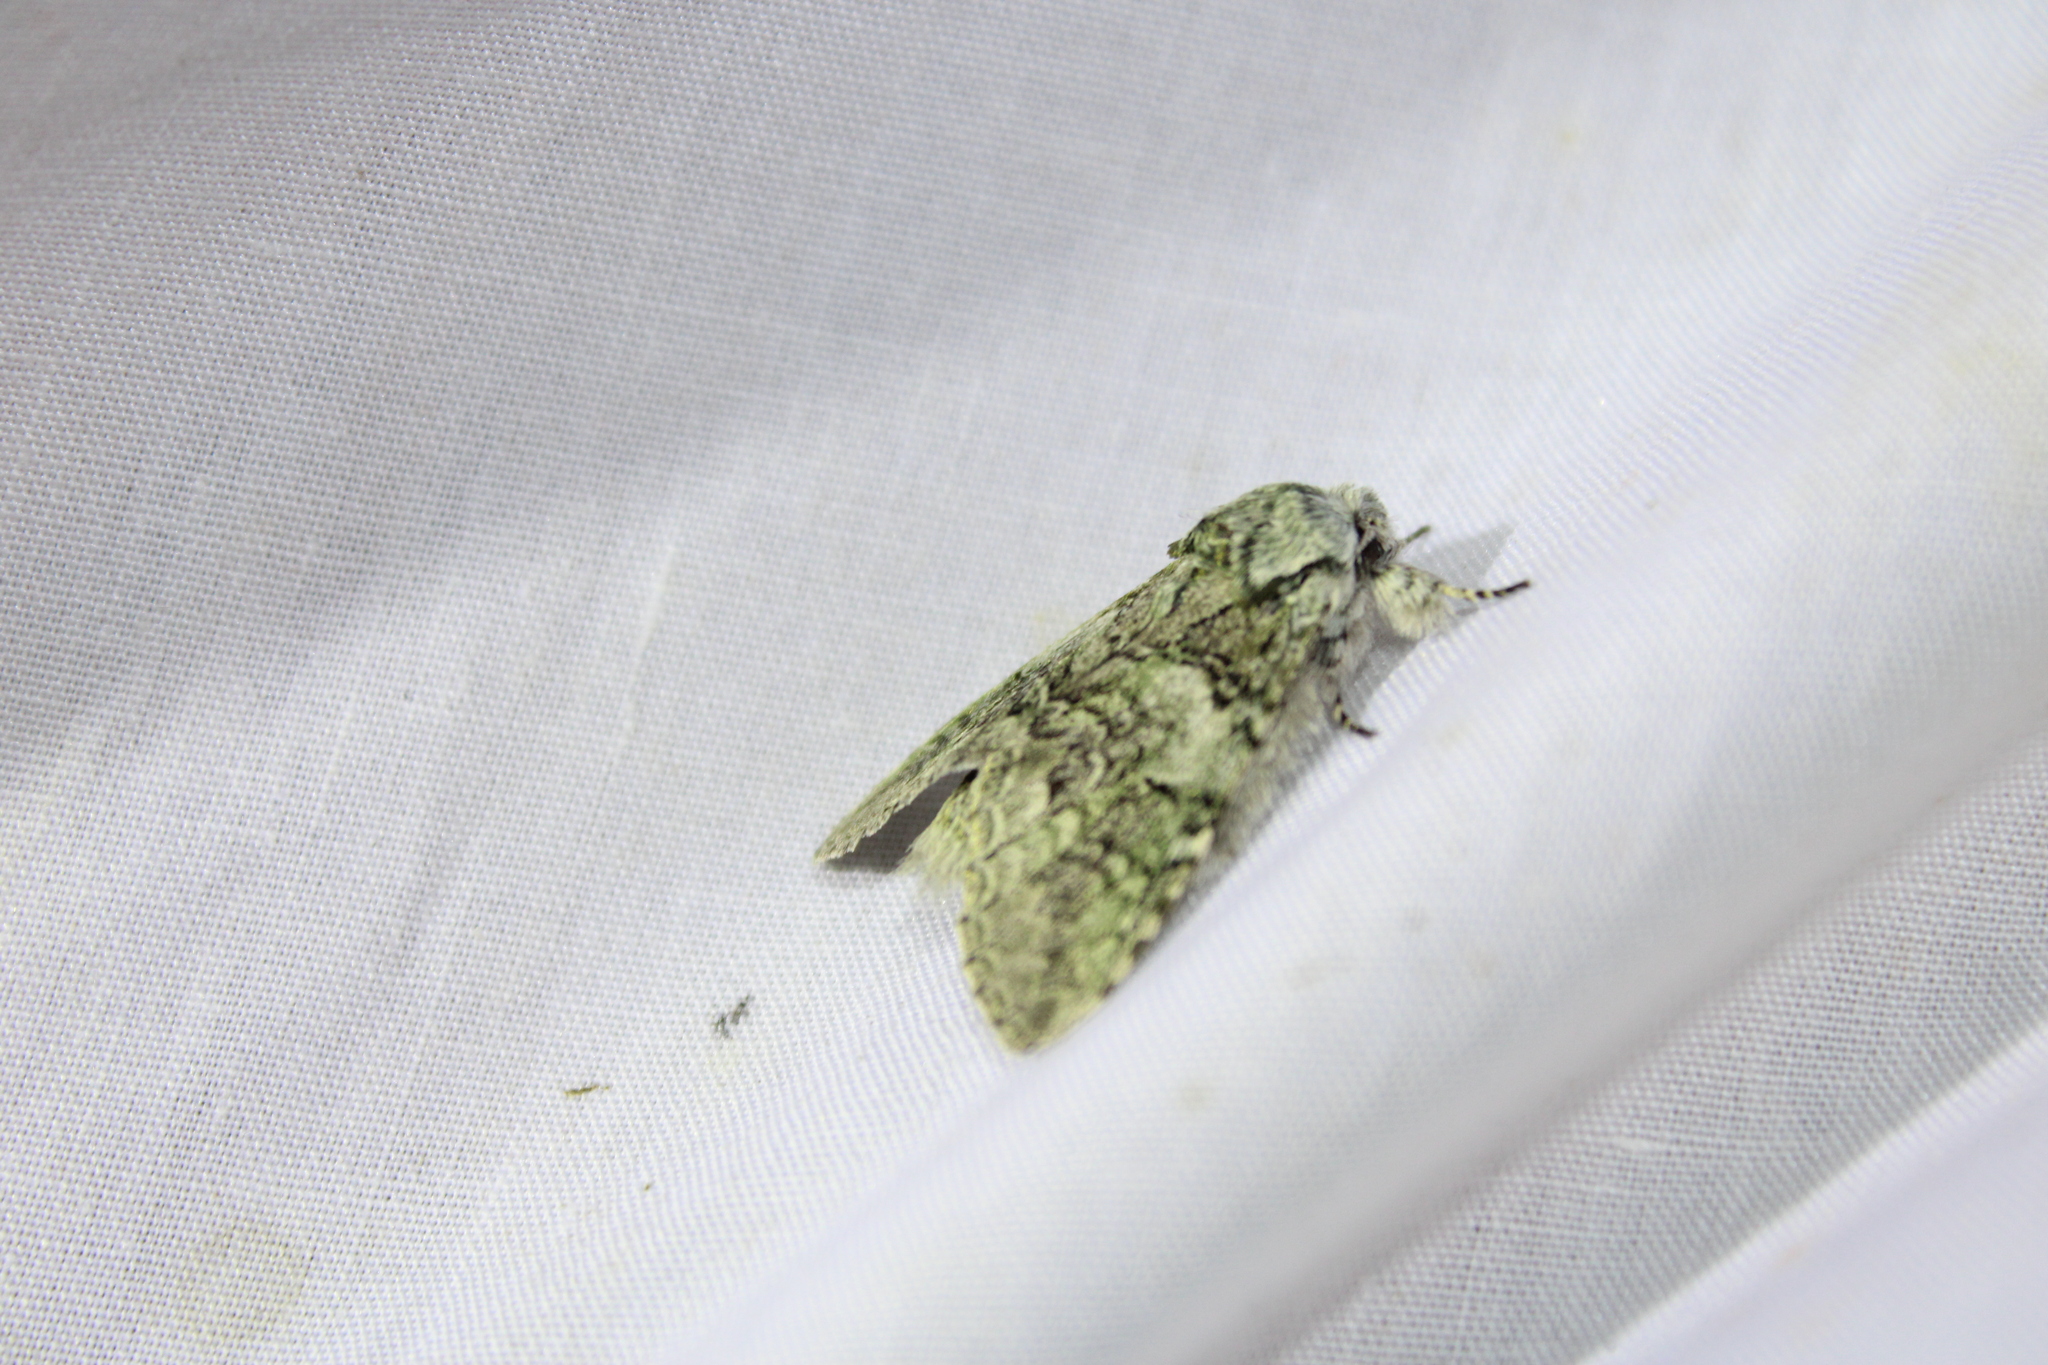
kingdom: Animalia
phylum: Arthropoda
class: Insecta
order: Lepidoptera
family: Notodontidae
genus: Macrurocampa
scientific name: Macrurocampa marthesia
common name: Mottled prominent
